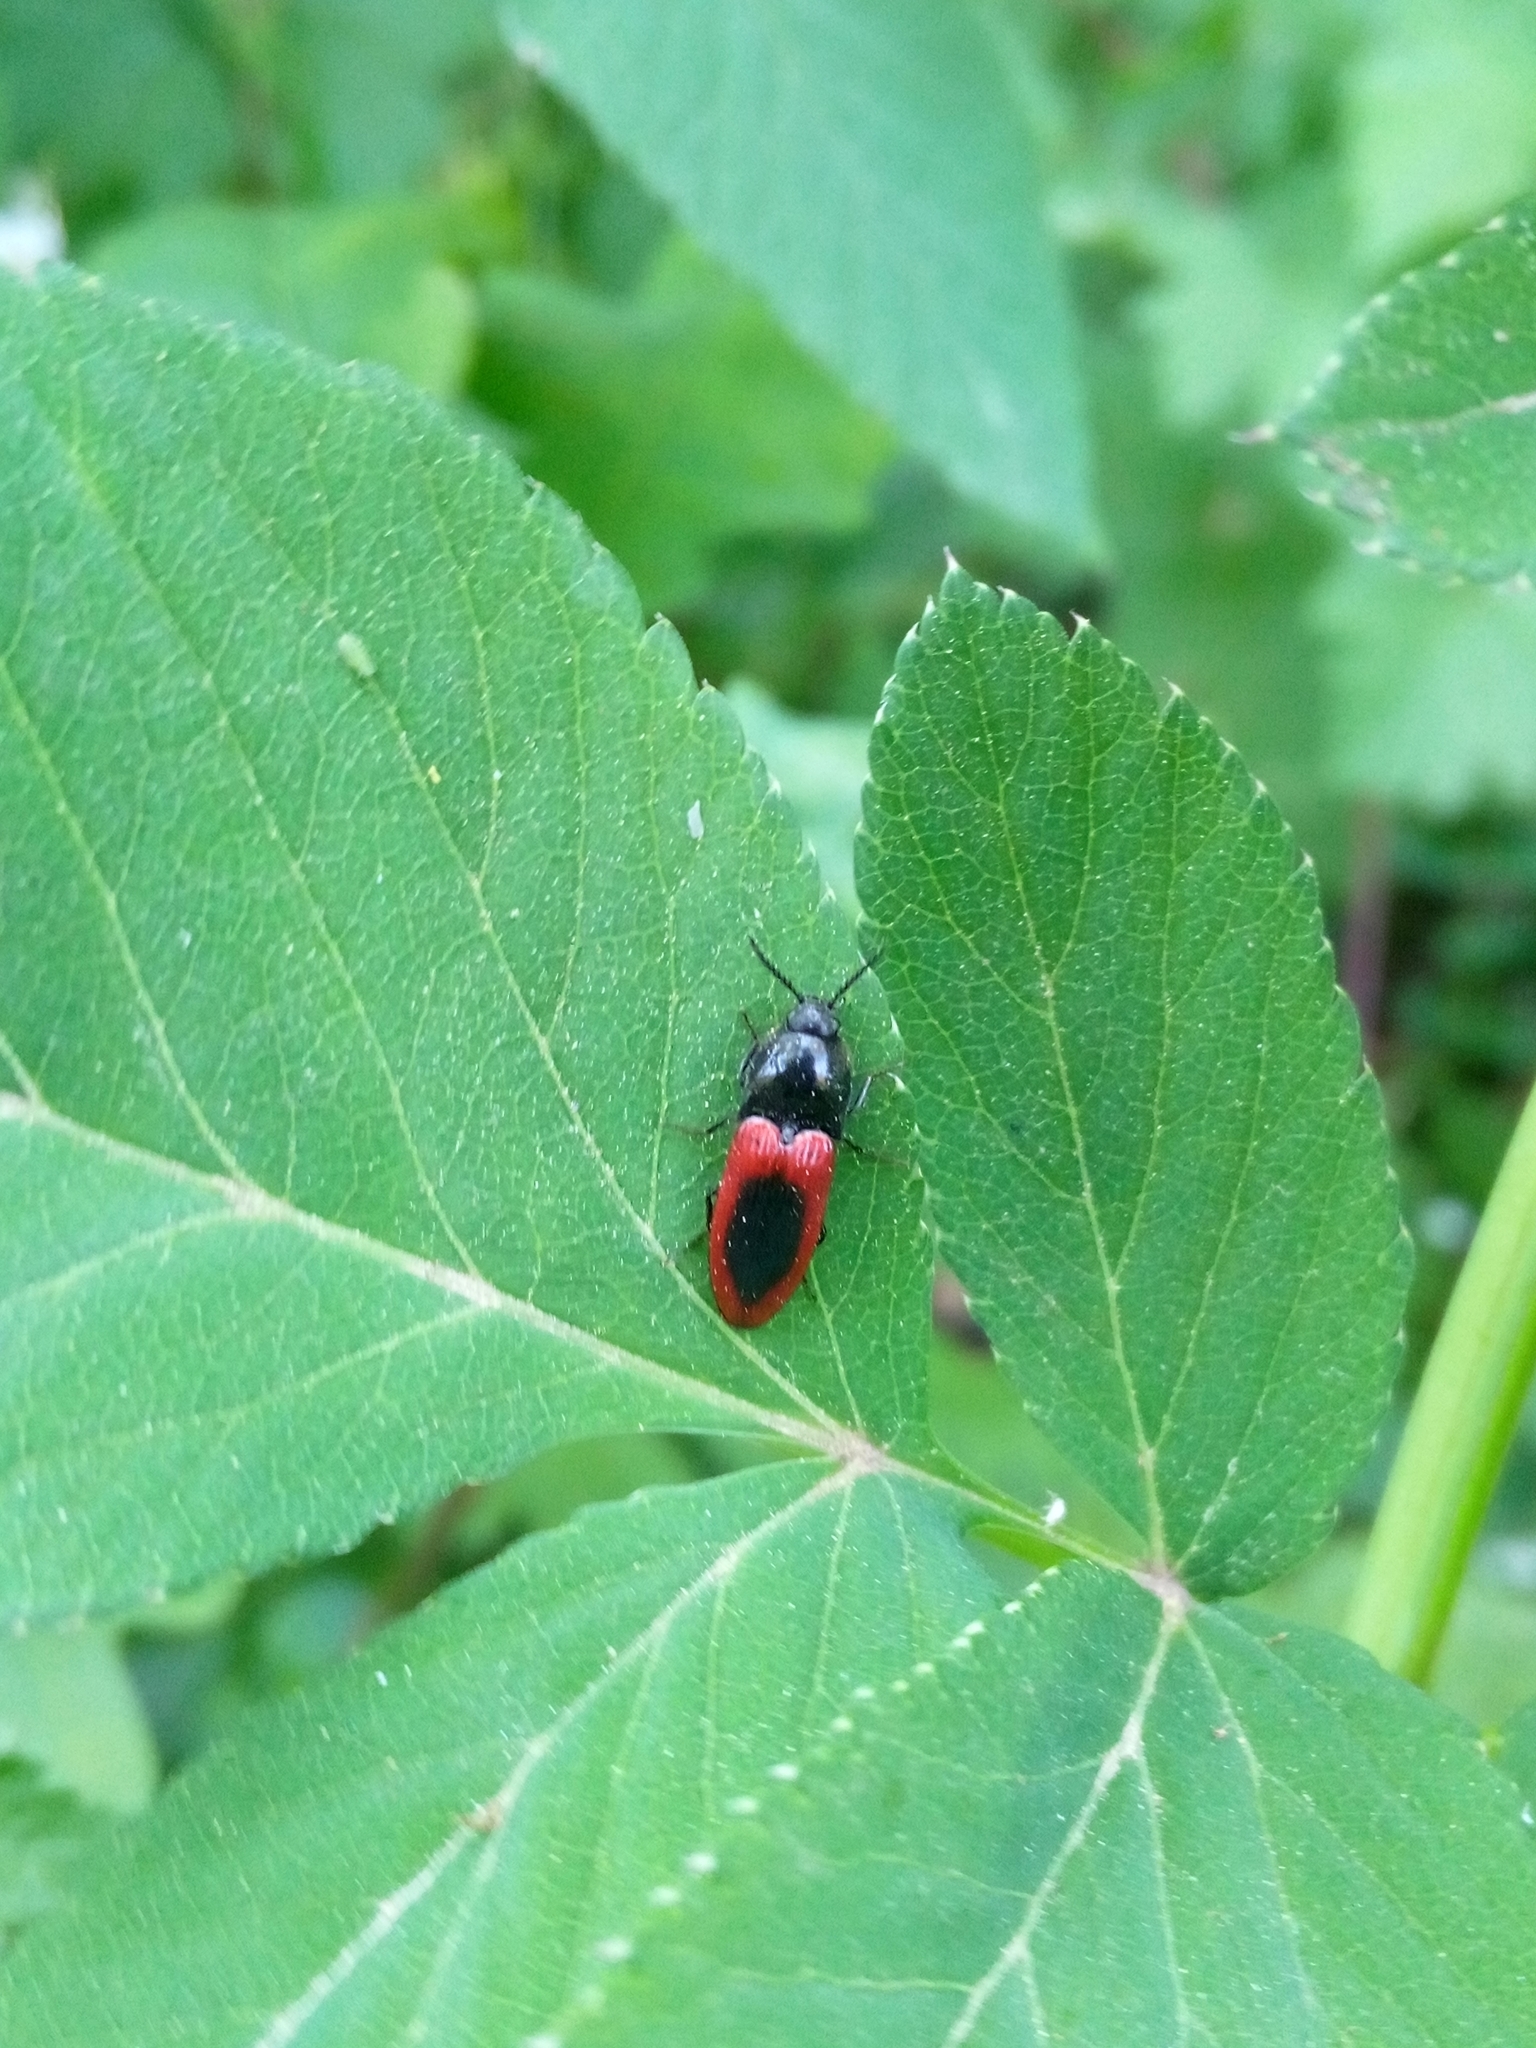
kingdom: Animalia
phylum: Arthropoda
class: Insecta
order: Coleoptera
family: Elateridae
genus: Ampedus
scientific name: Ampedus sanguinolentus
